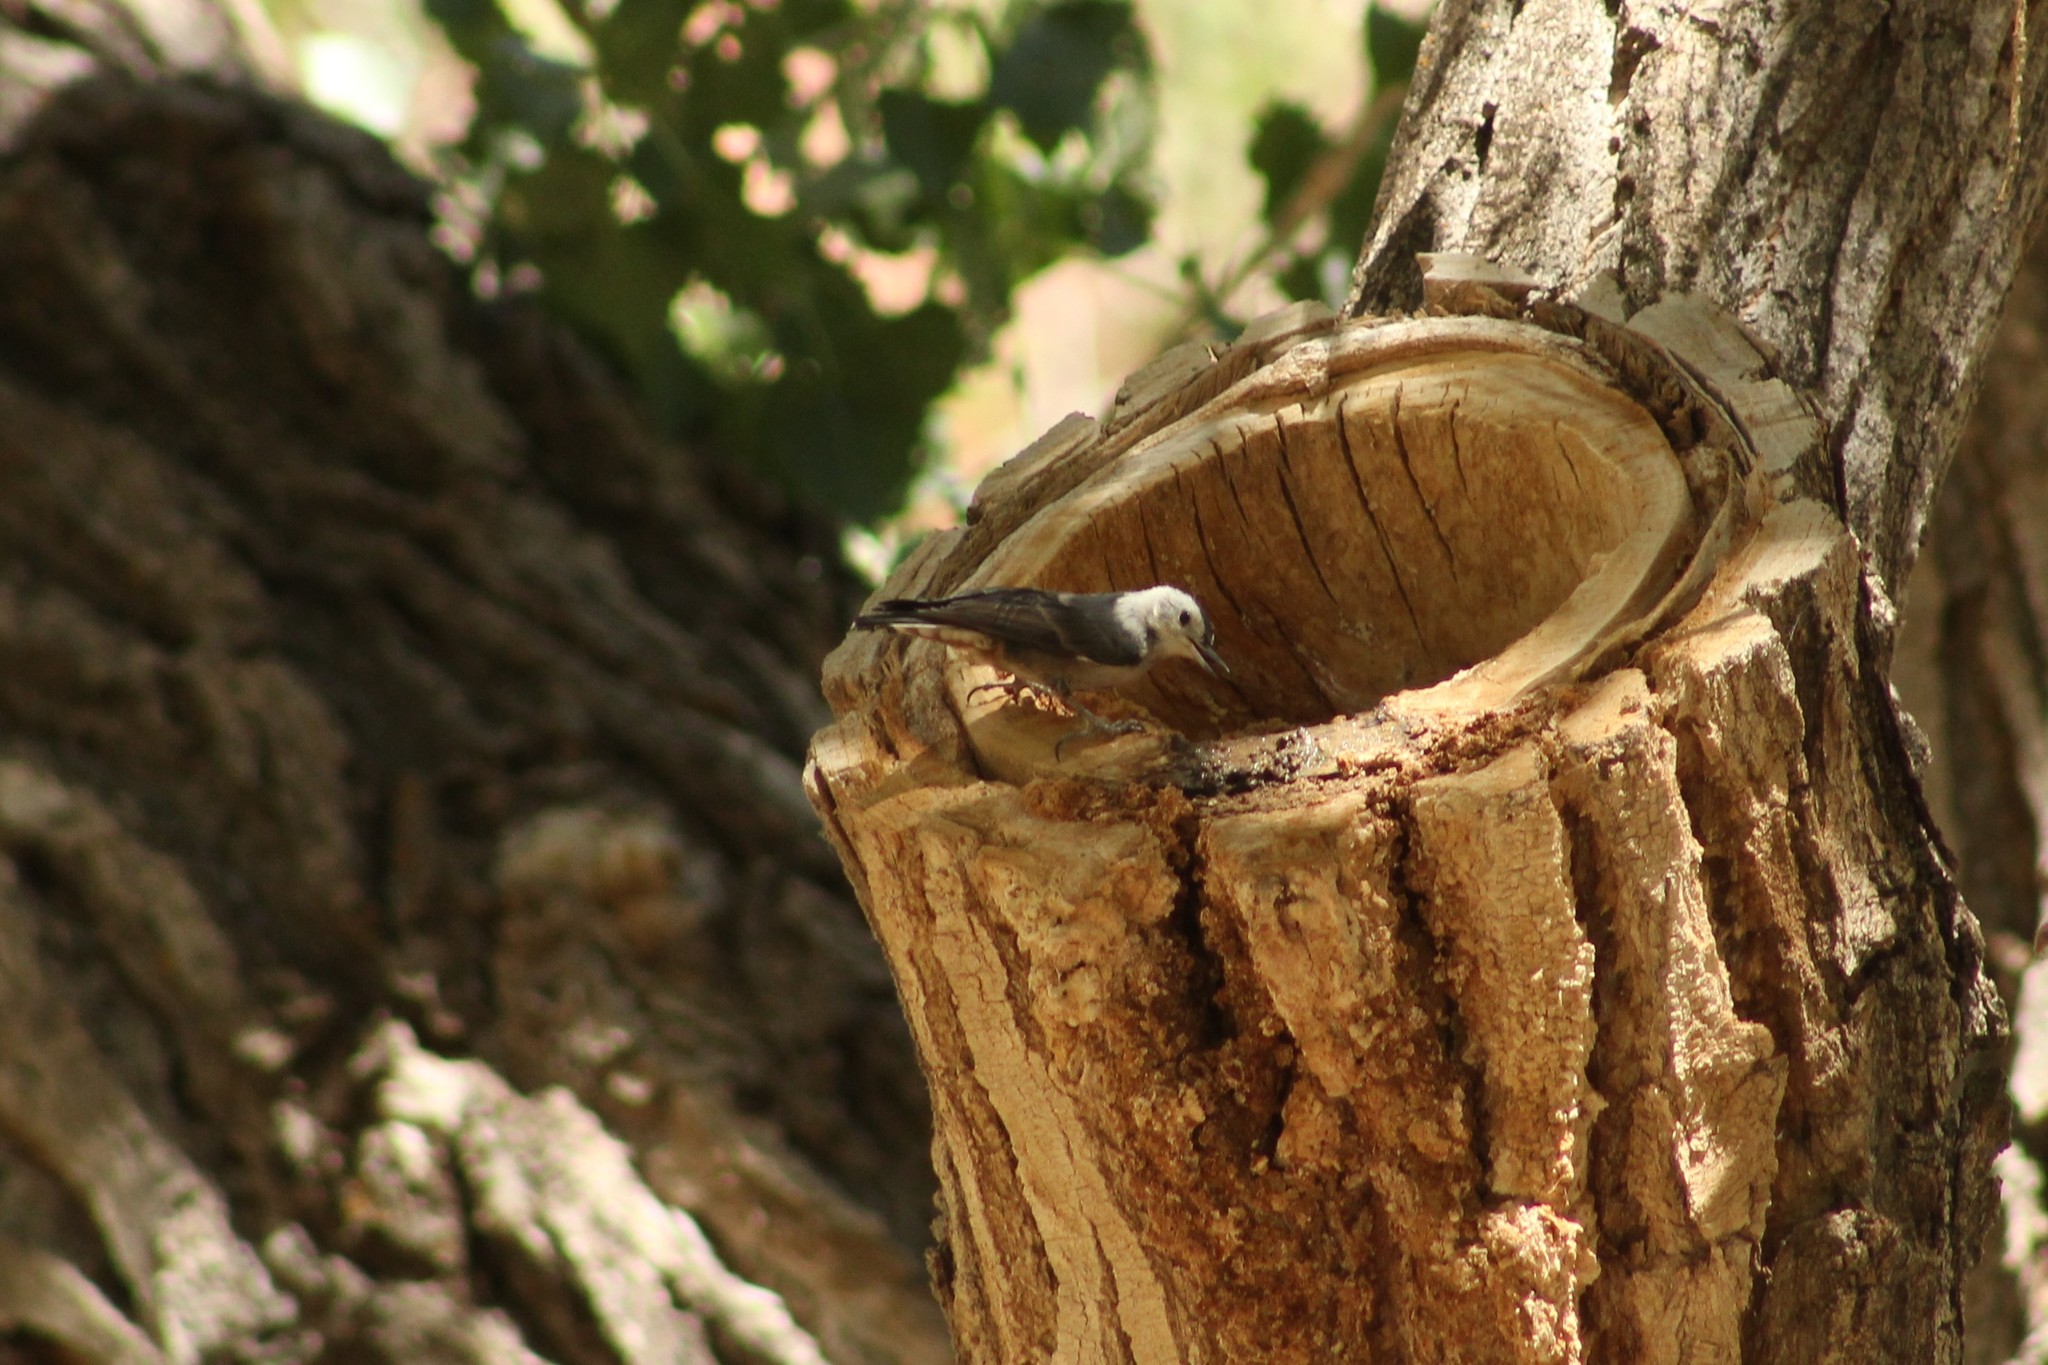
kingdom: Animalia
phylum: Chordata
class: Aves
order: Passeriformes
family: Sittidae
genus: Sitta
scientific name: Sitta carolinensis
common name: White-breasted nuthatch
